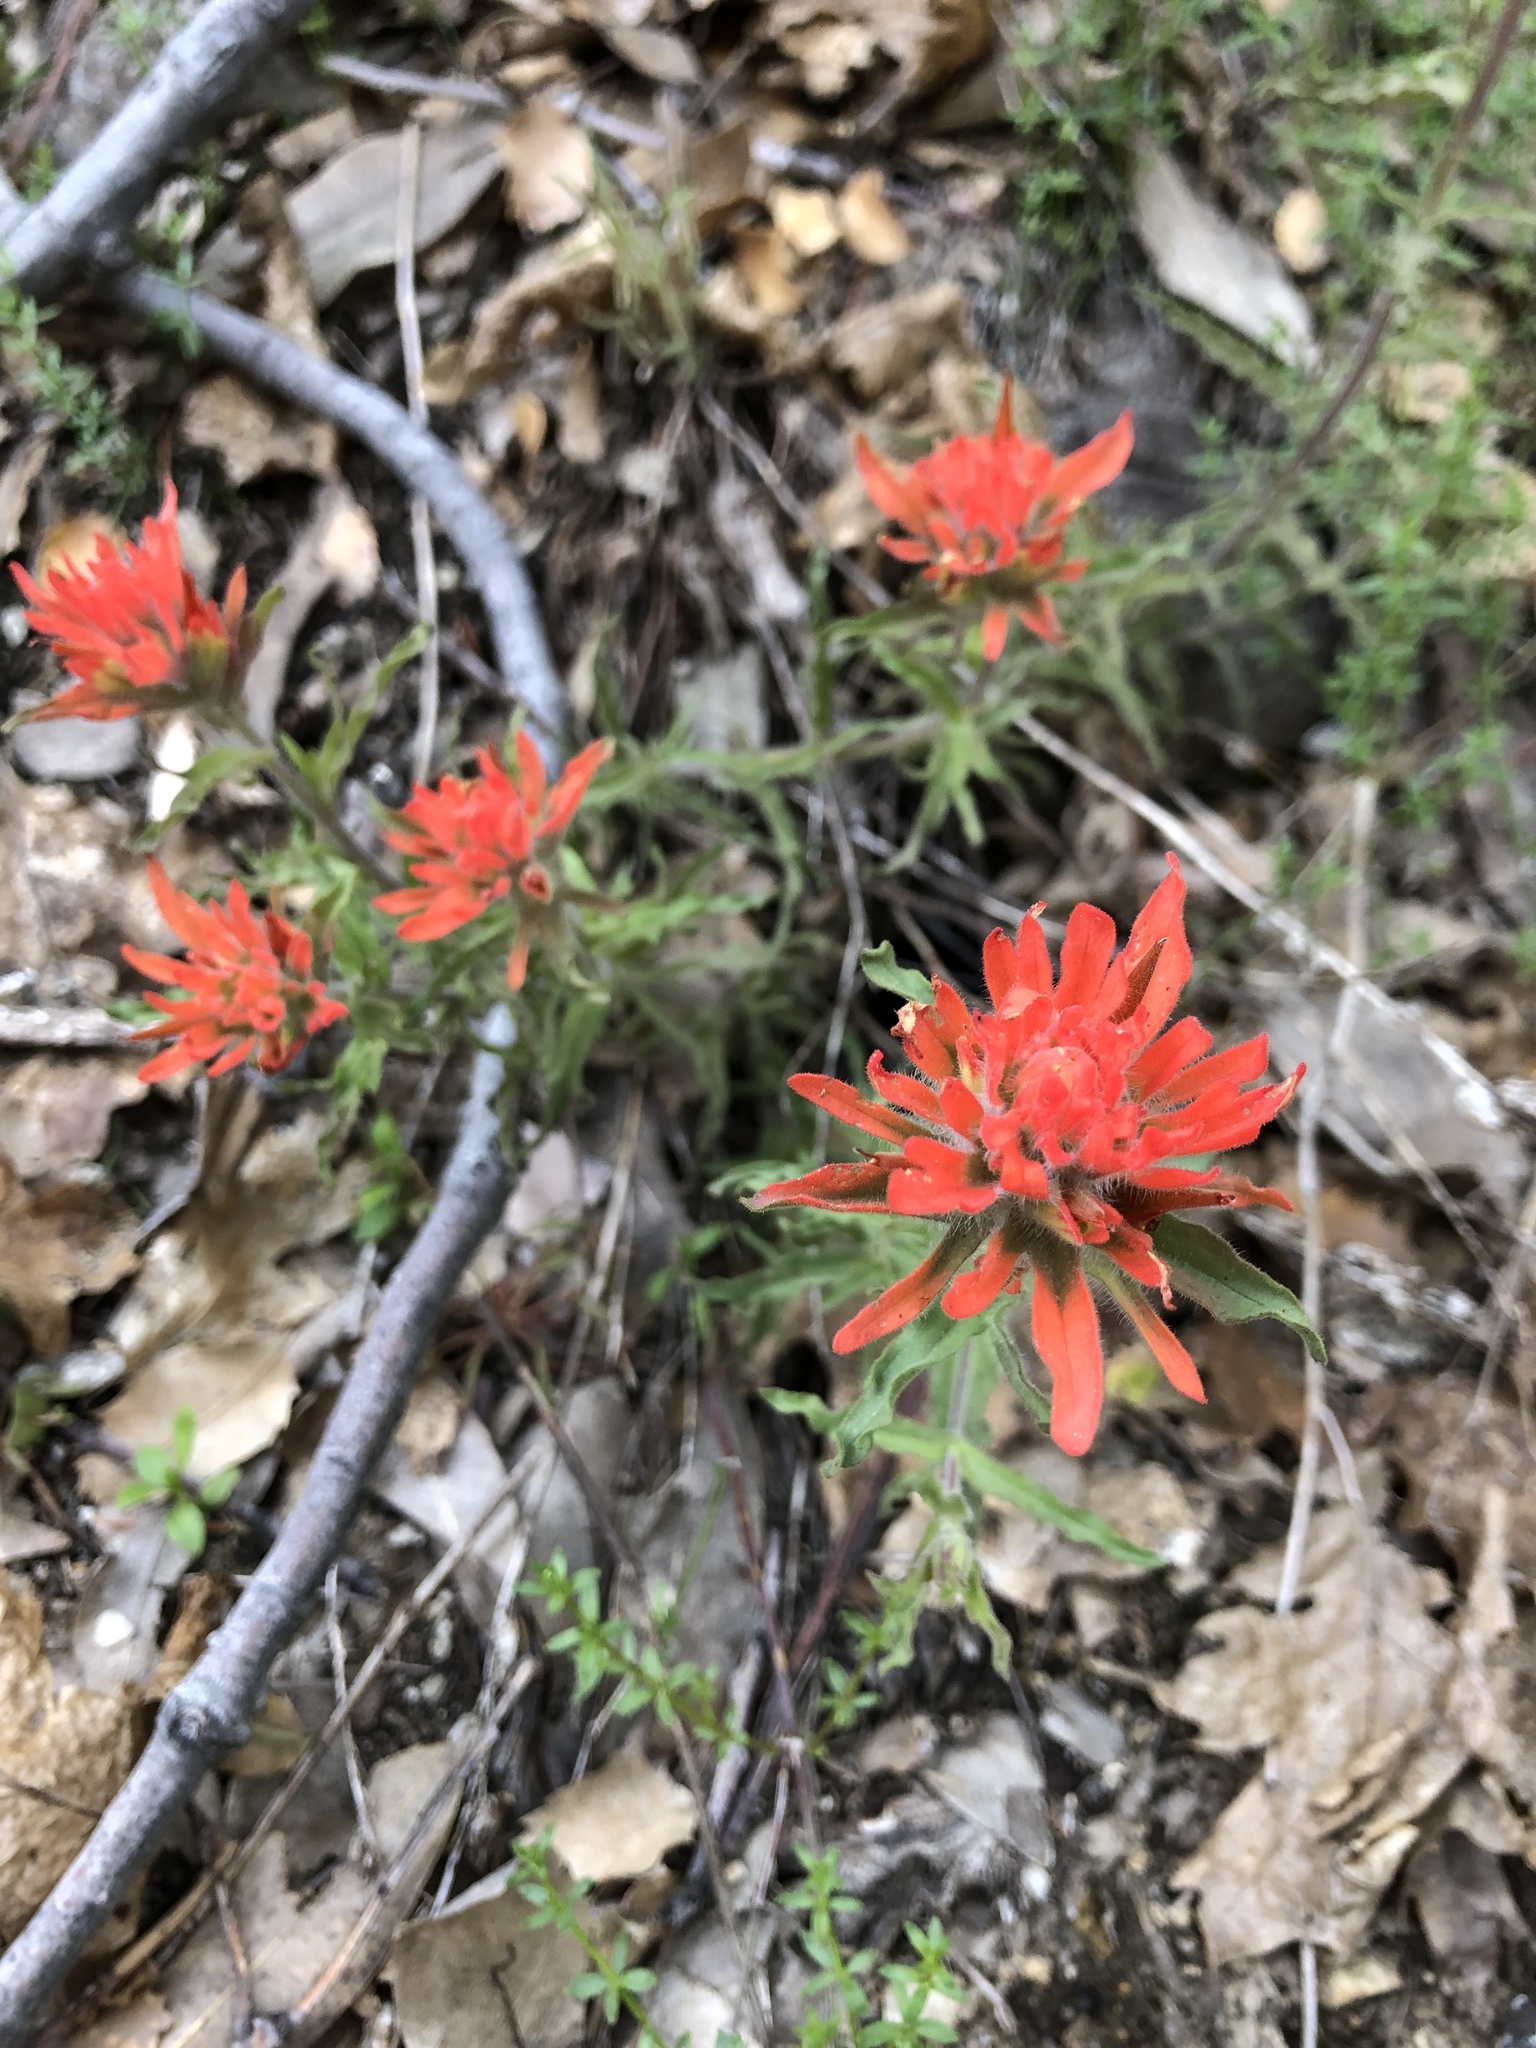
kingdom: Plantae
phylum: Tracheophyta
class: Magnoliopsida
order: Lamiales
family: Orobanchaceae
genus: Castilleja
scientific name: Castilleja applegatei
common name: Wavy-leaf paintbrush
